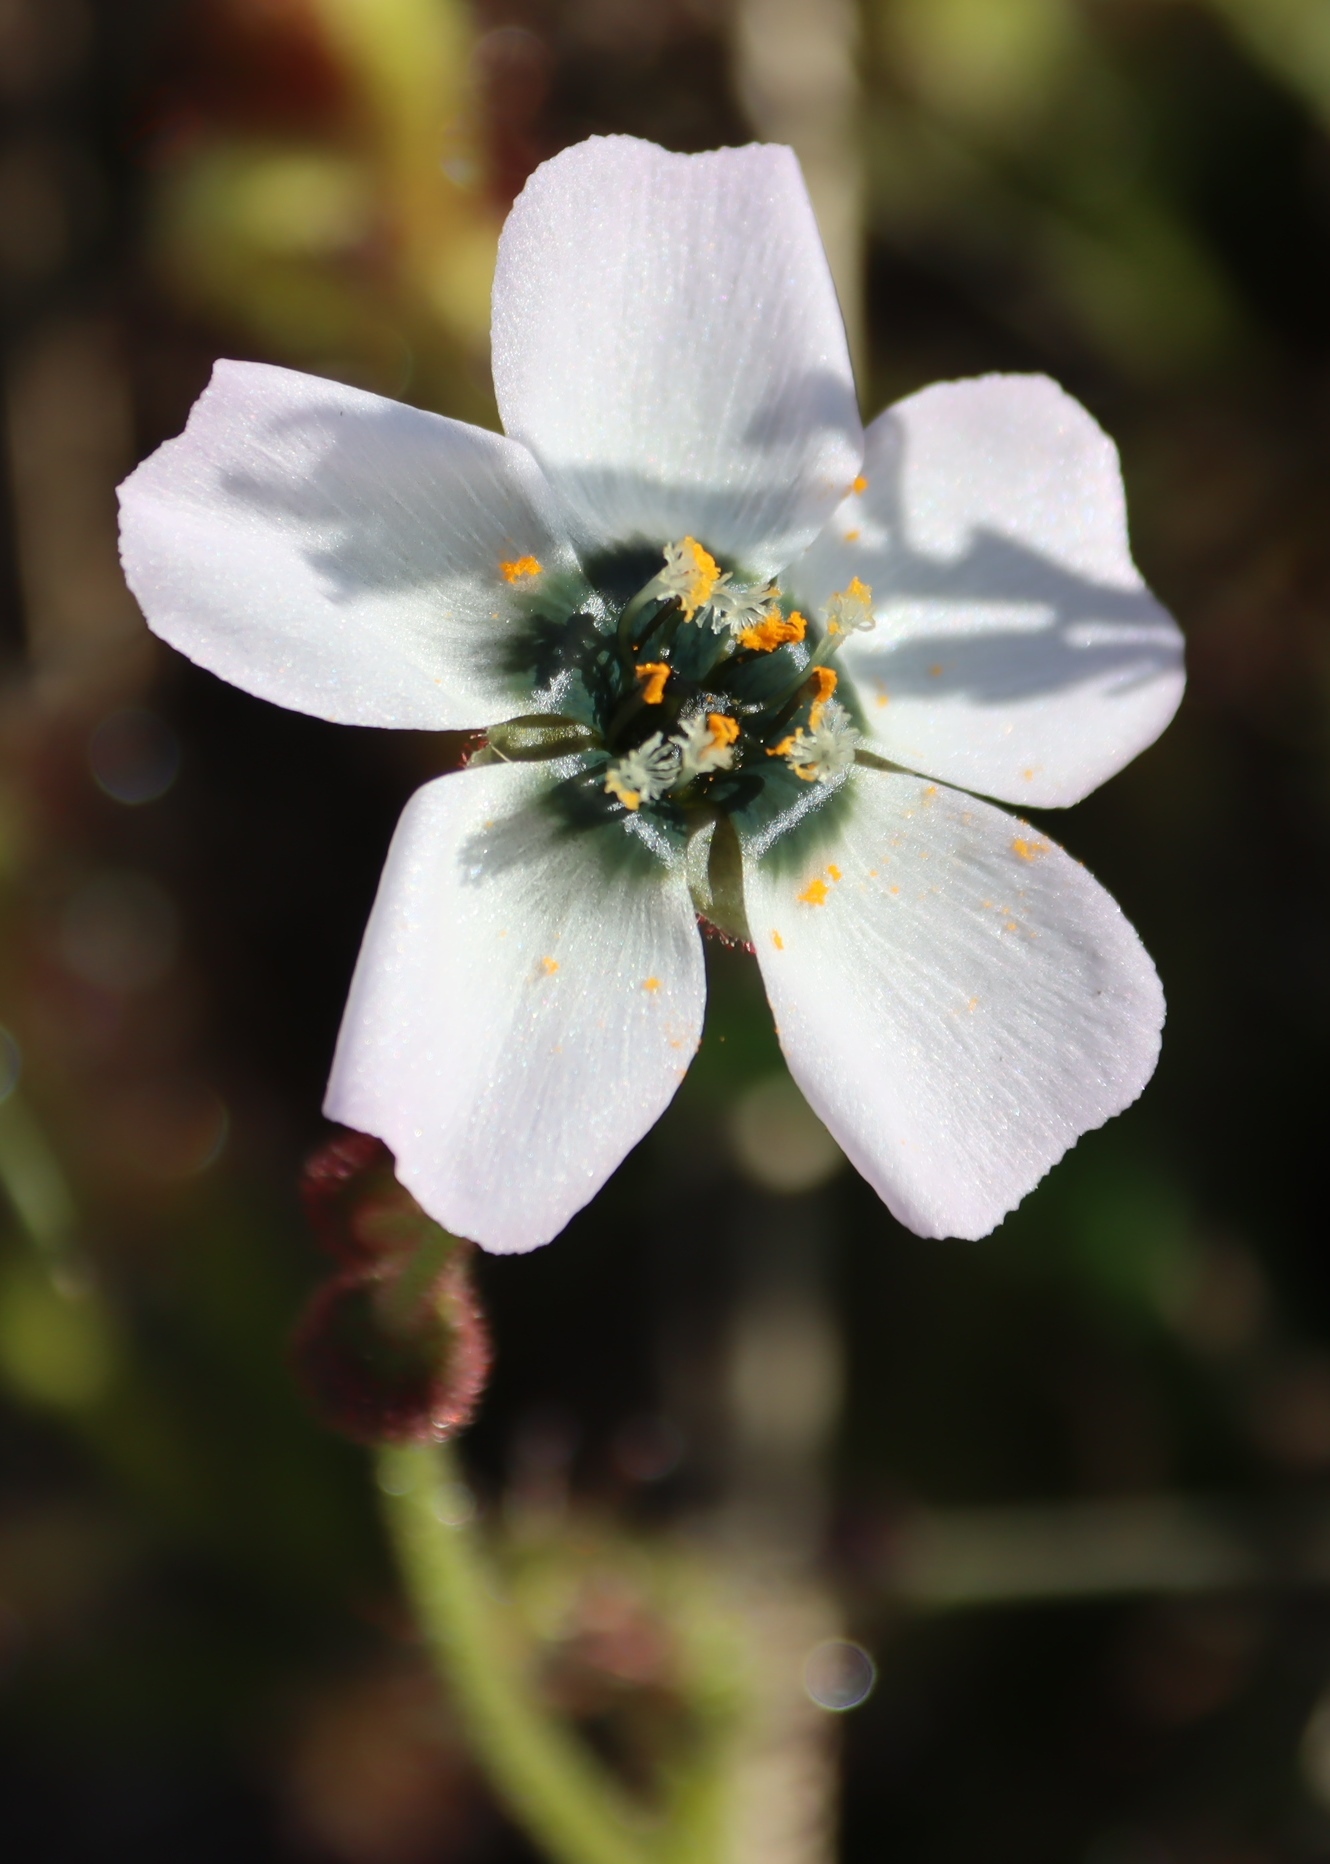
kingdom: Plantae
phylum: Tracheophyta
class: Magnoliopsida
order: Caryophyllales
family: Droseraceae
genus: Drosera
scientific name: Drosera cistiflora
